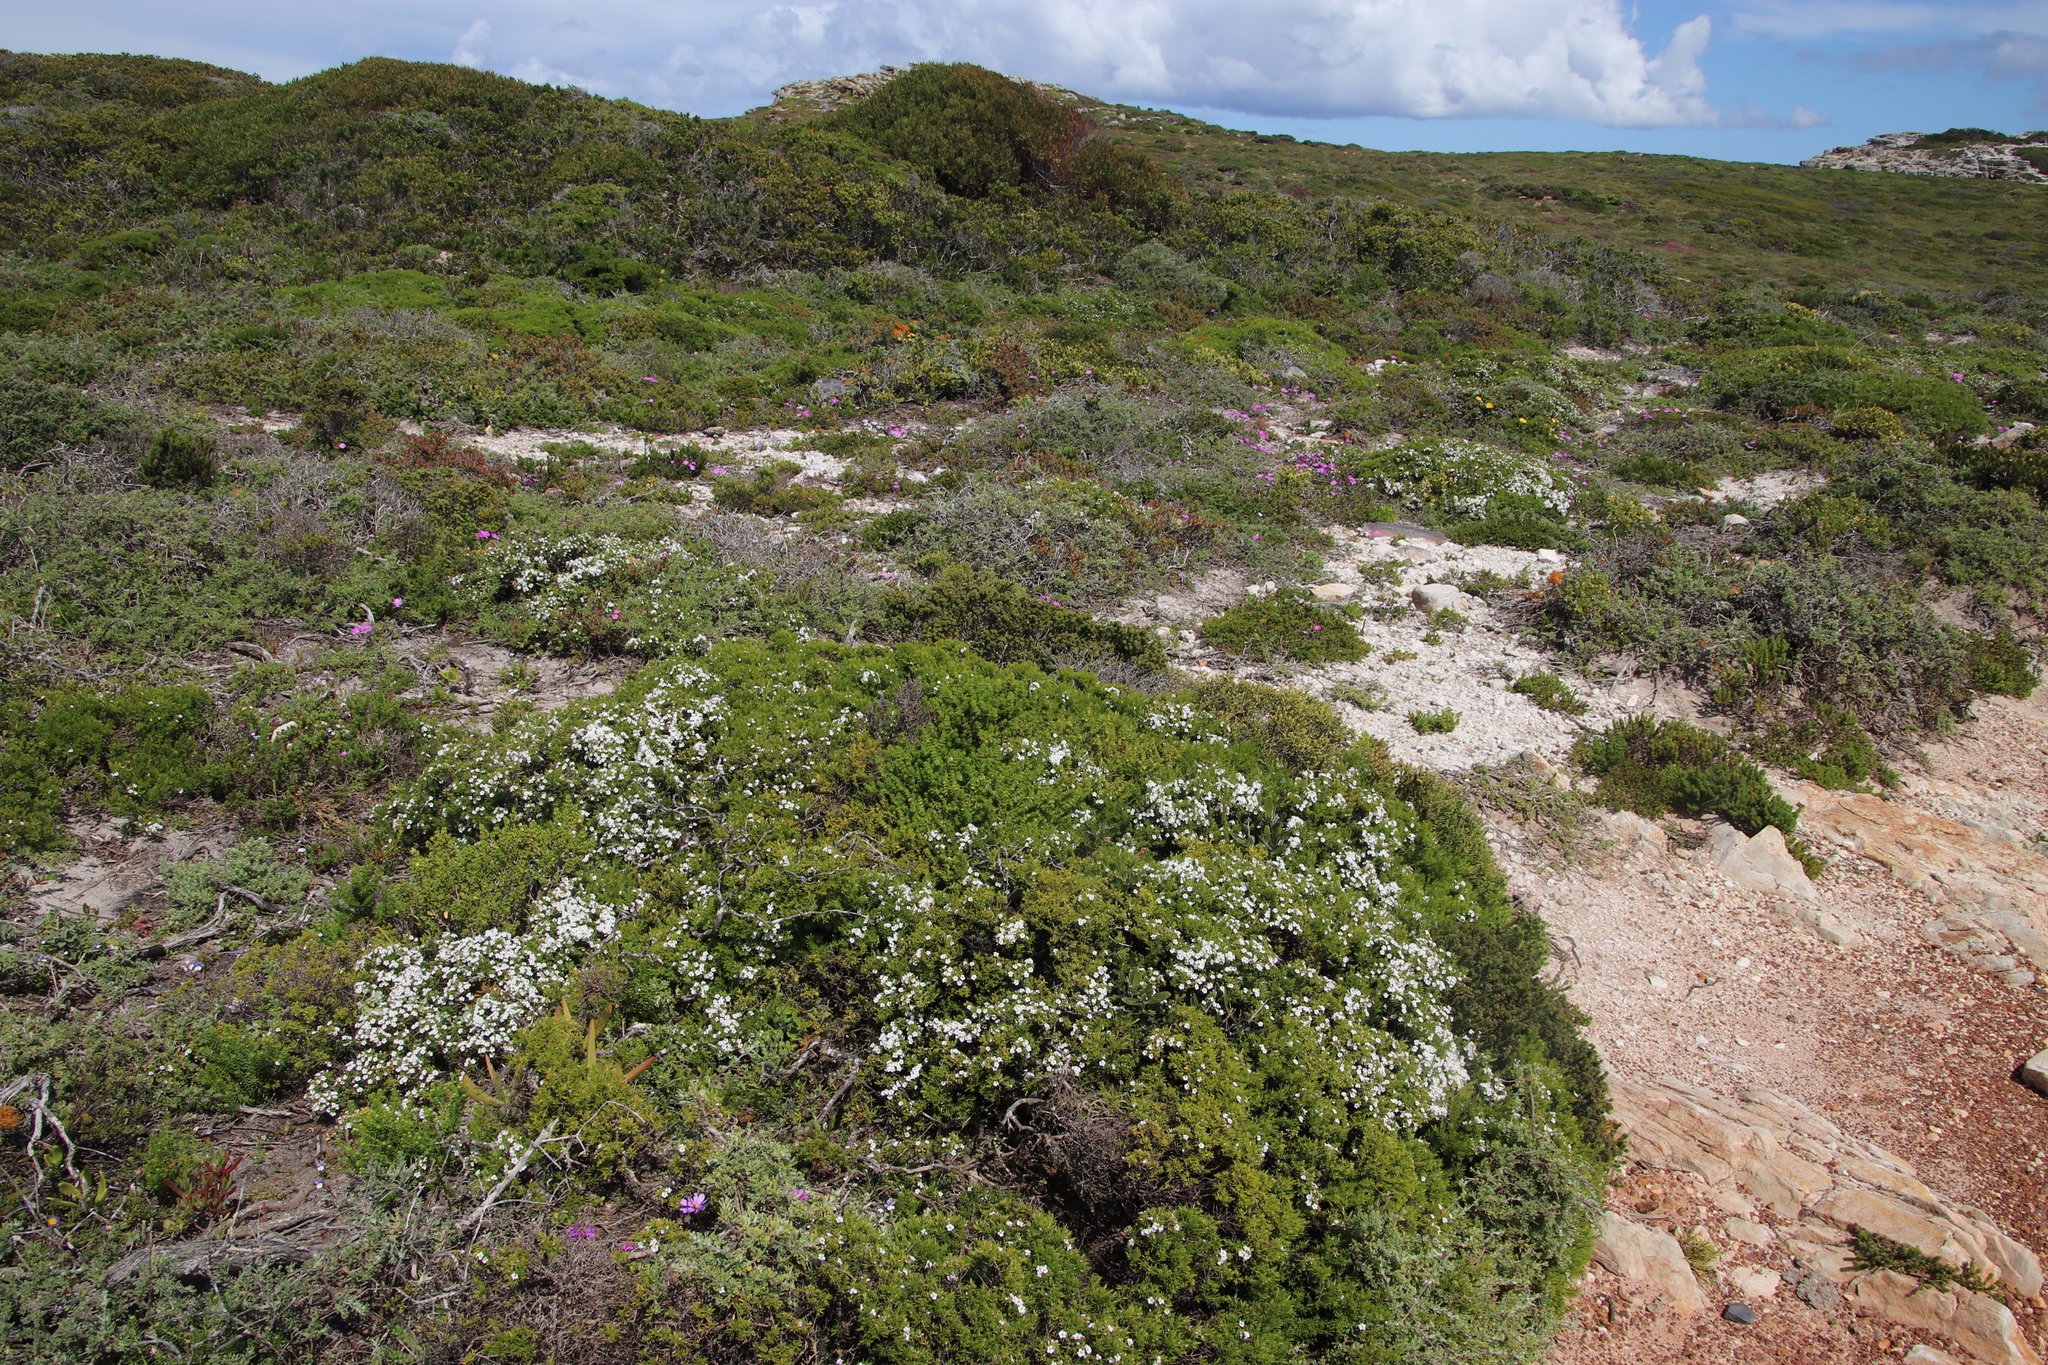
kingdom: Plantae
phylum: Tracheophyta
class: Magnoliopsida
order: Sapindales
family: Rutaceae
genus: Coleonema
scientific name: Coleonema album
